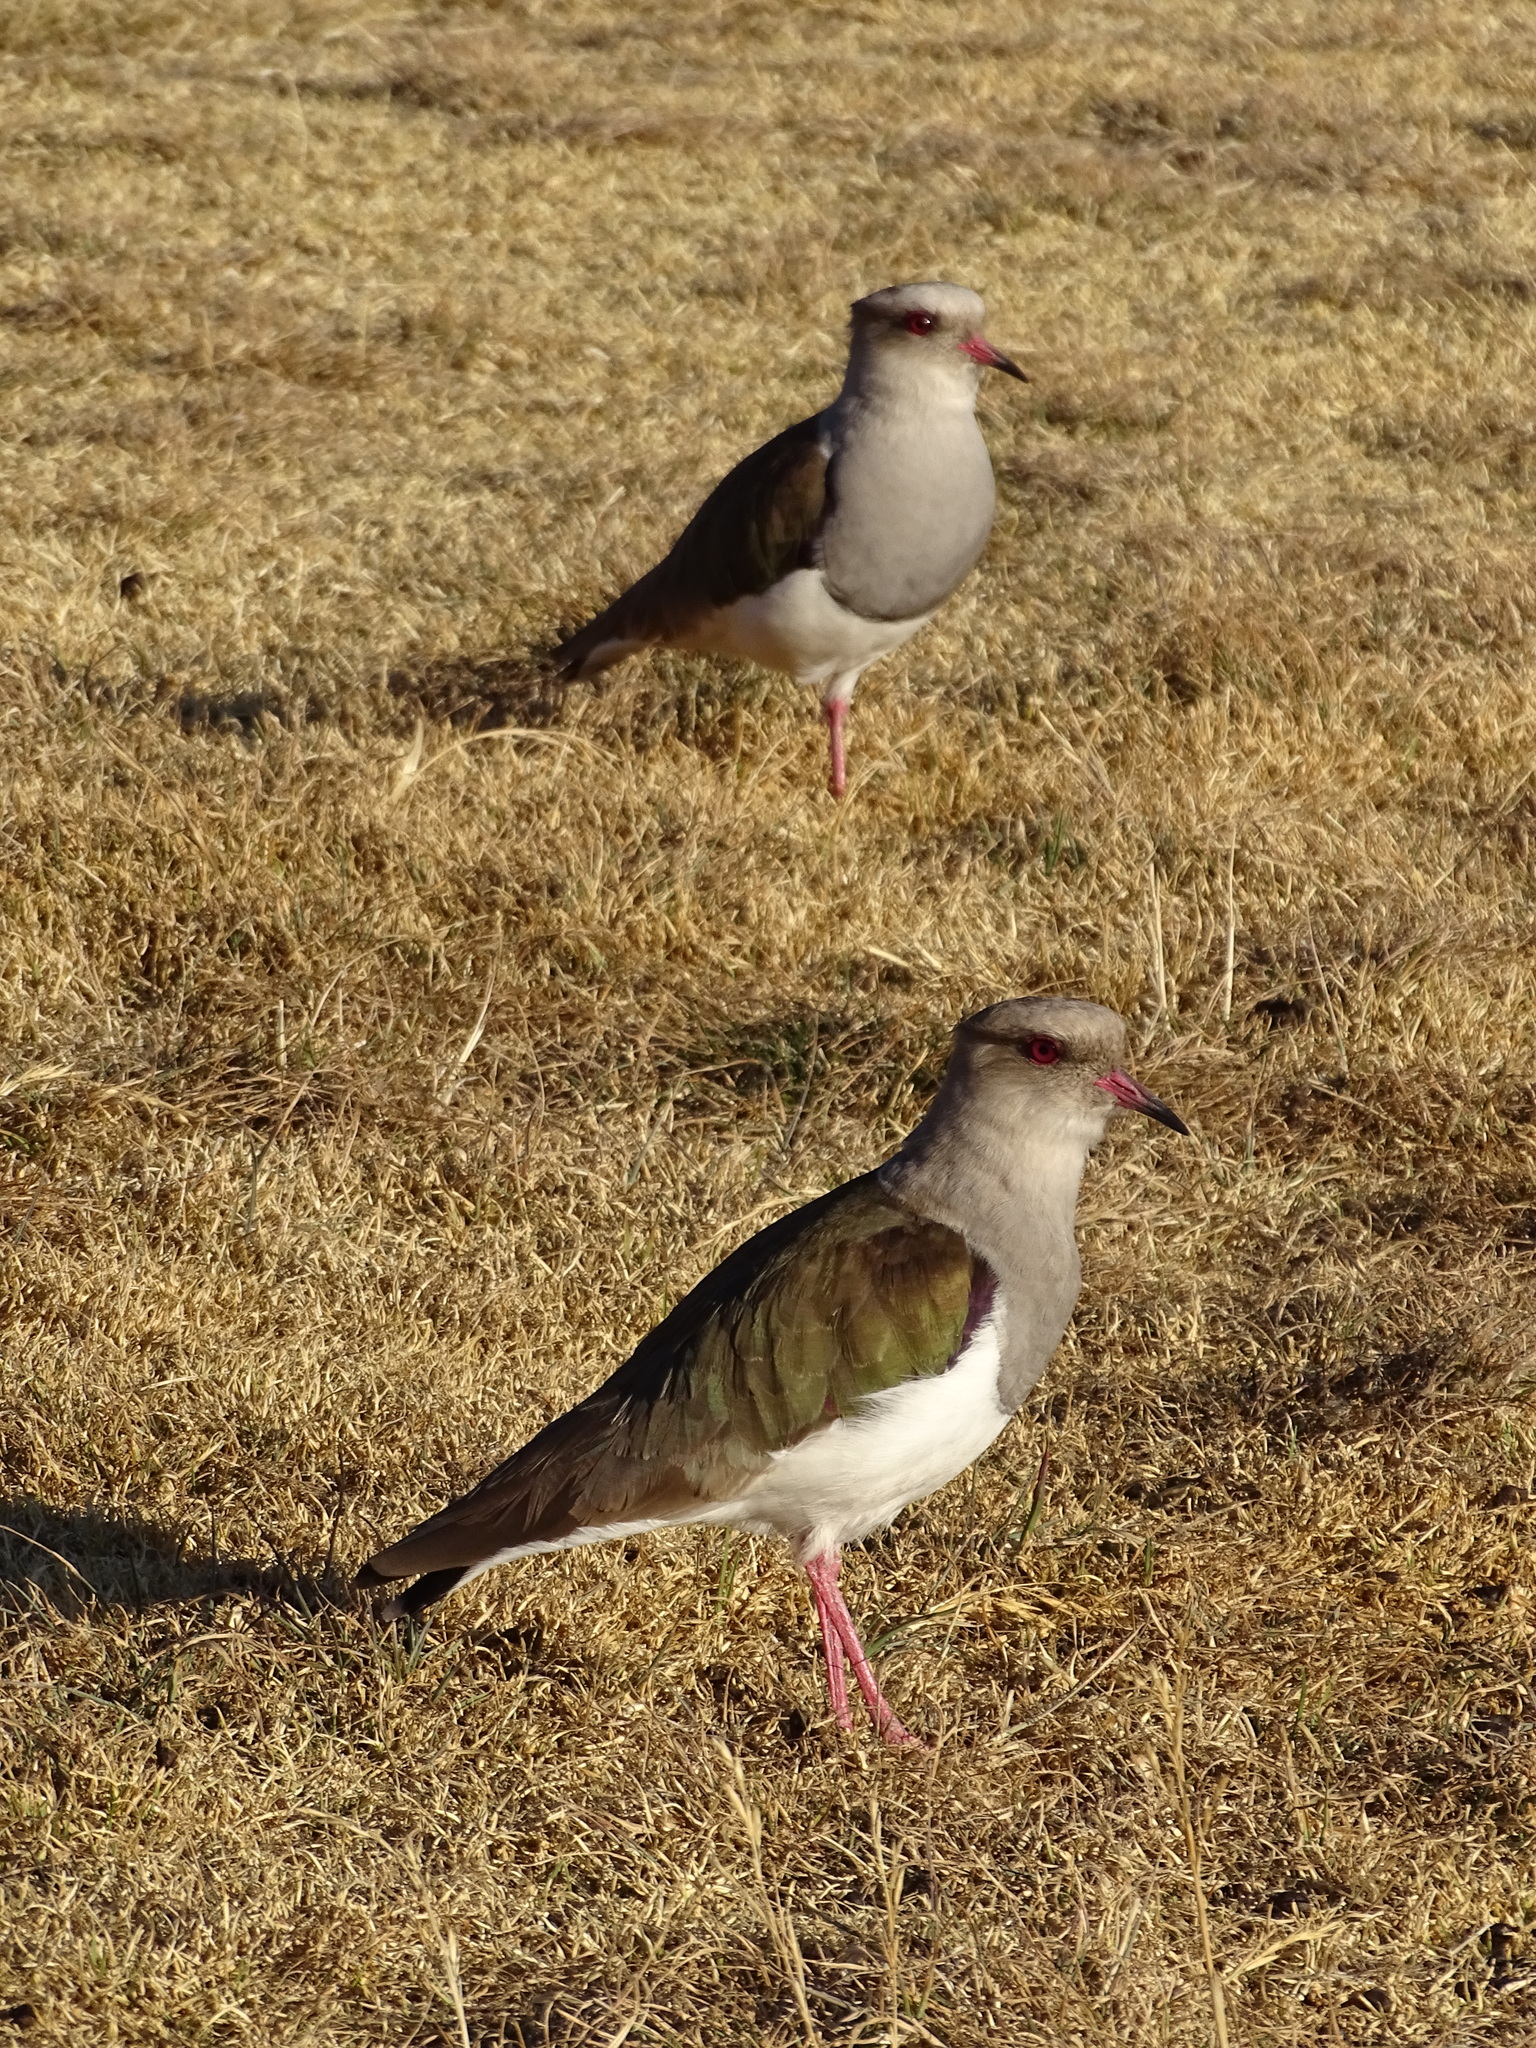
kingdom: Animalia
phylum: Chordata
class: Aves
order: Charadriiformes
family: Charadriidae
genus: Vanellus
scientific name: Vanellus resplendens
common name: Andean lapwing
